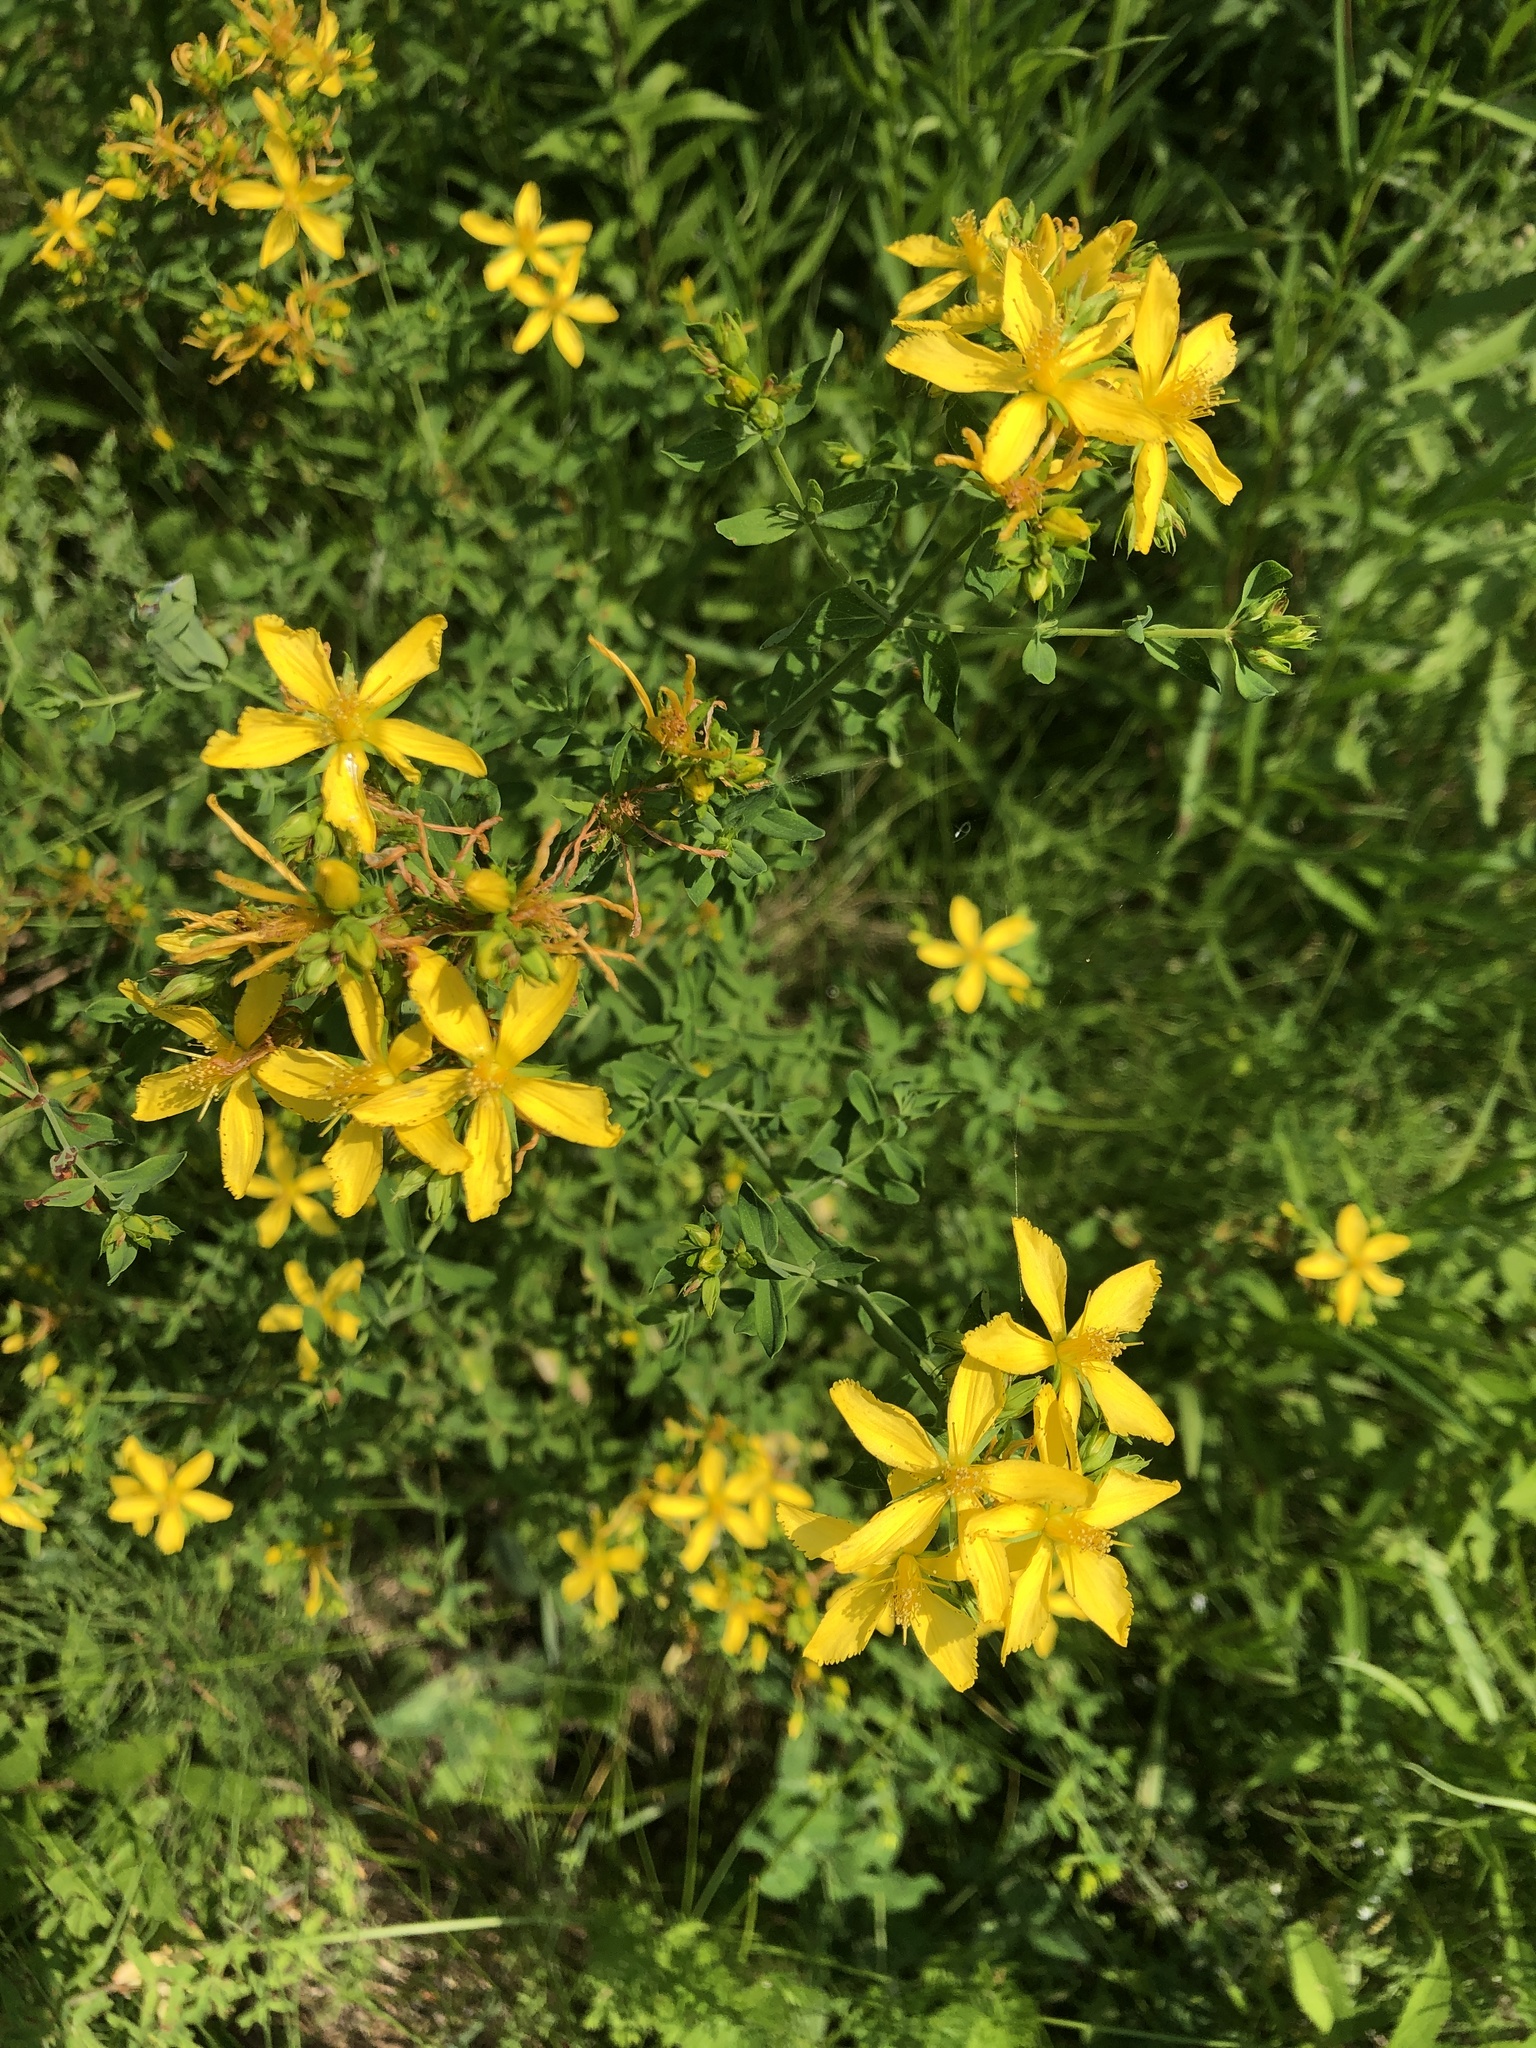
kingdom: Plantae
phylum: Tracheophyta
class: Magnoliopsida
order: Malpighiales
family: Hypericaceae
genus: Hypericum
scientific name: Hypericum perforatum
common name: Common st. johnswort
